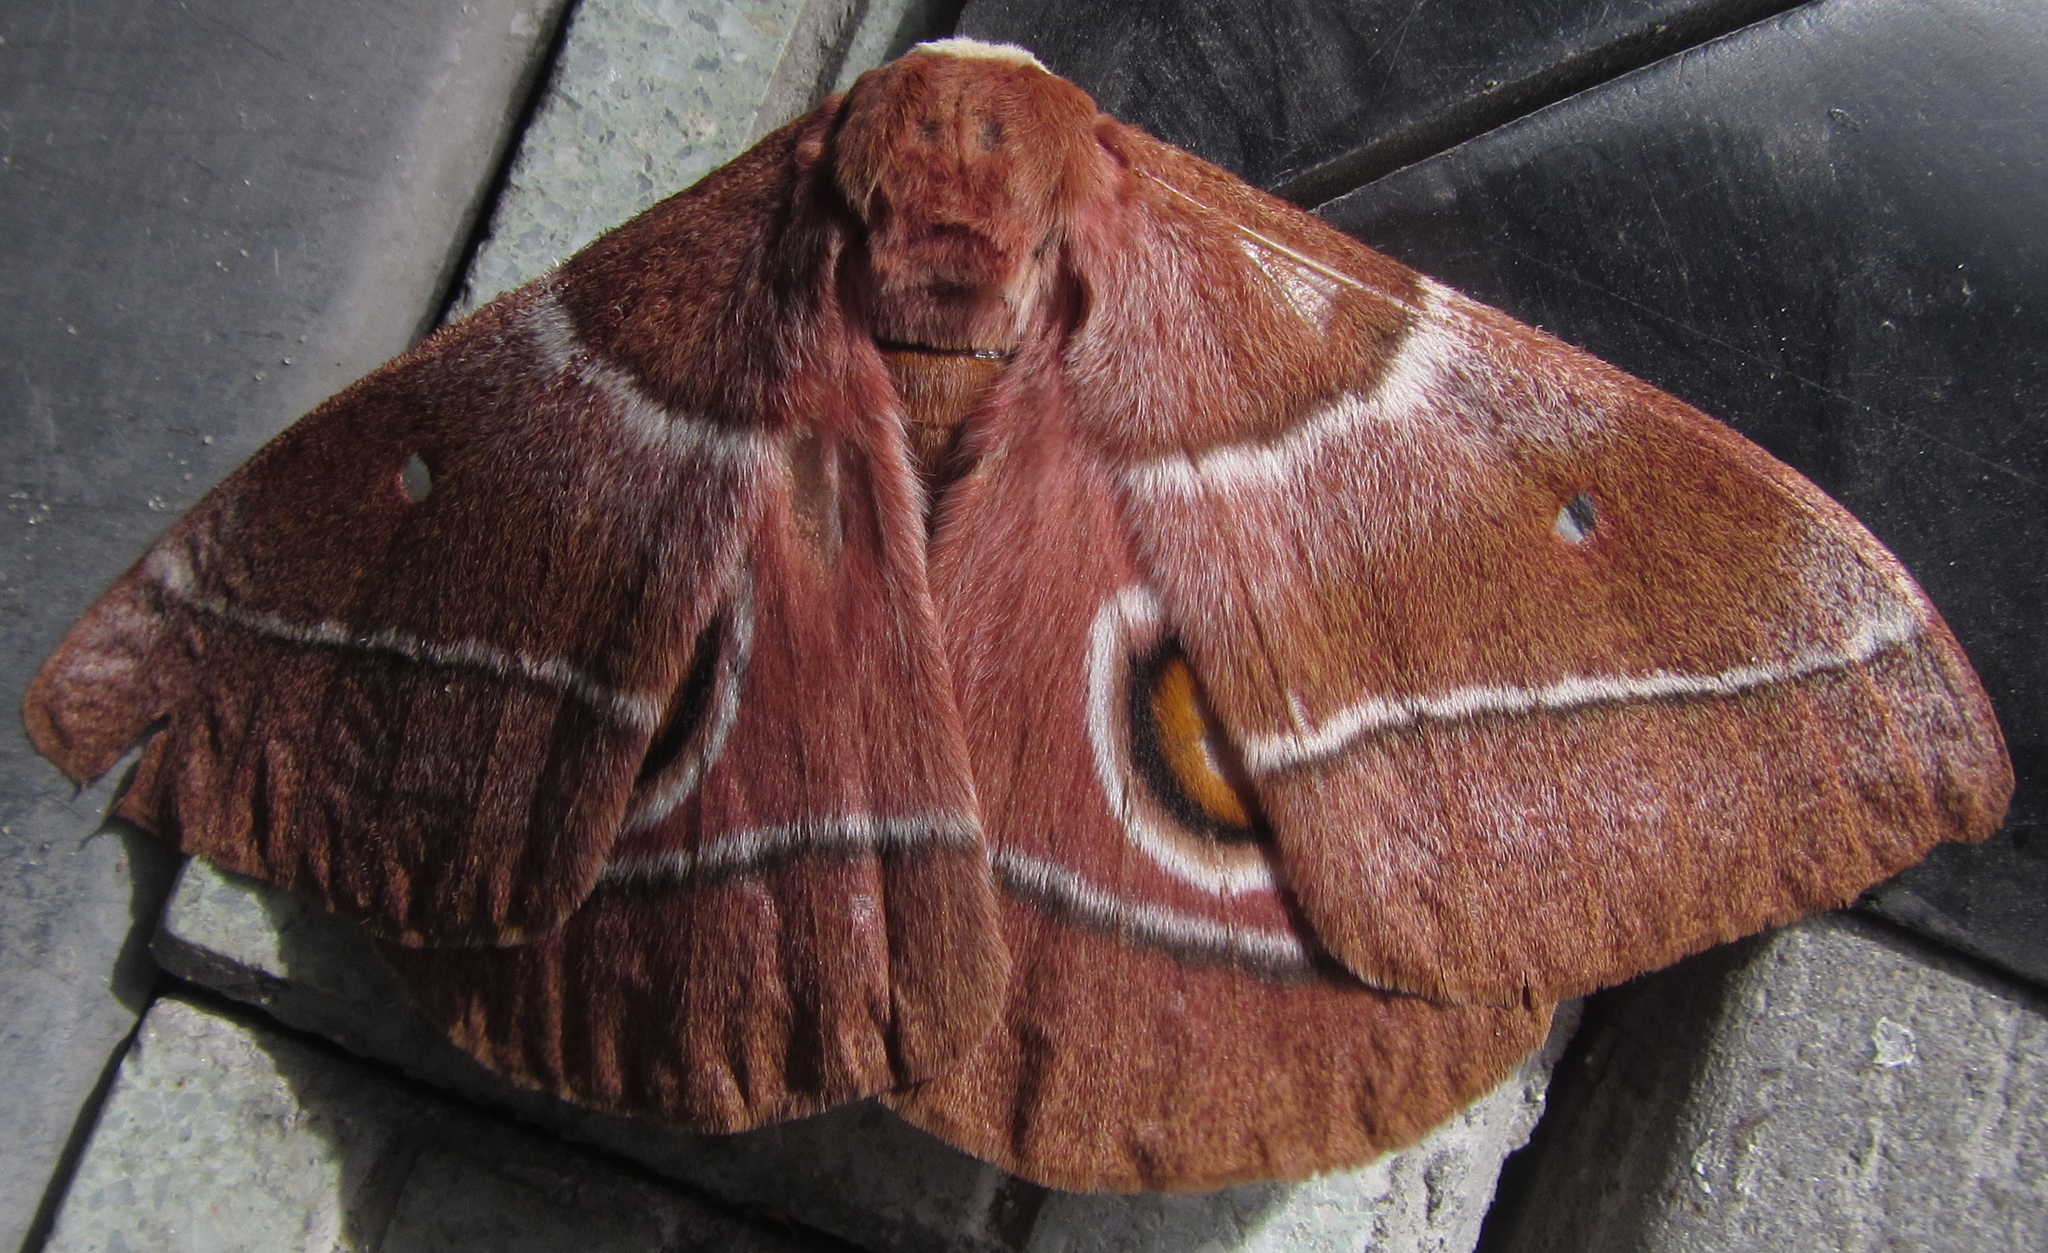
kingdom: Animalia
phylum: Arthropoda
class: Insecta
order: Lepidoptera
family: Saturniidae
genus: Gonimbrasia
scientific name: Gonimbrasia belina
